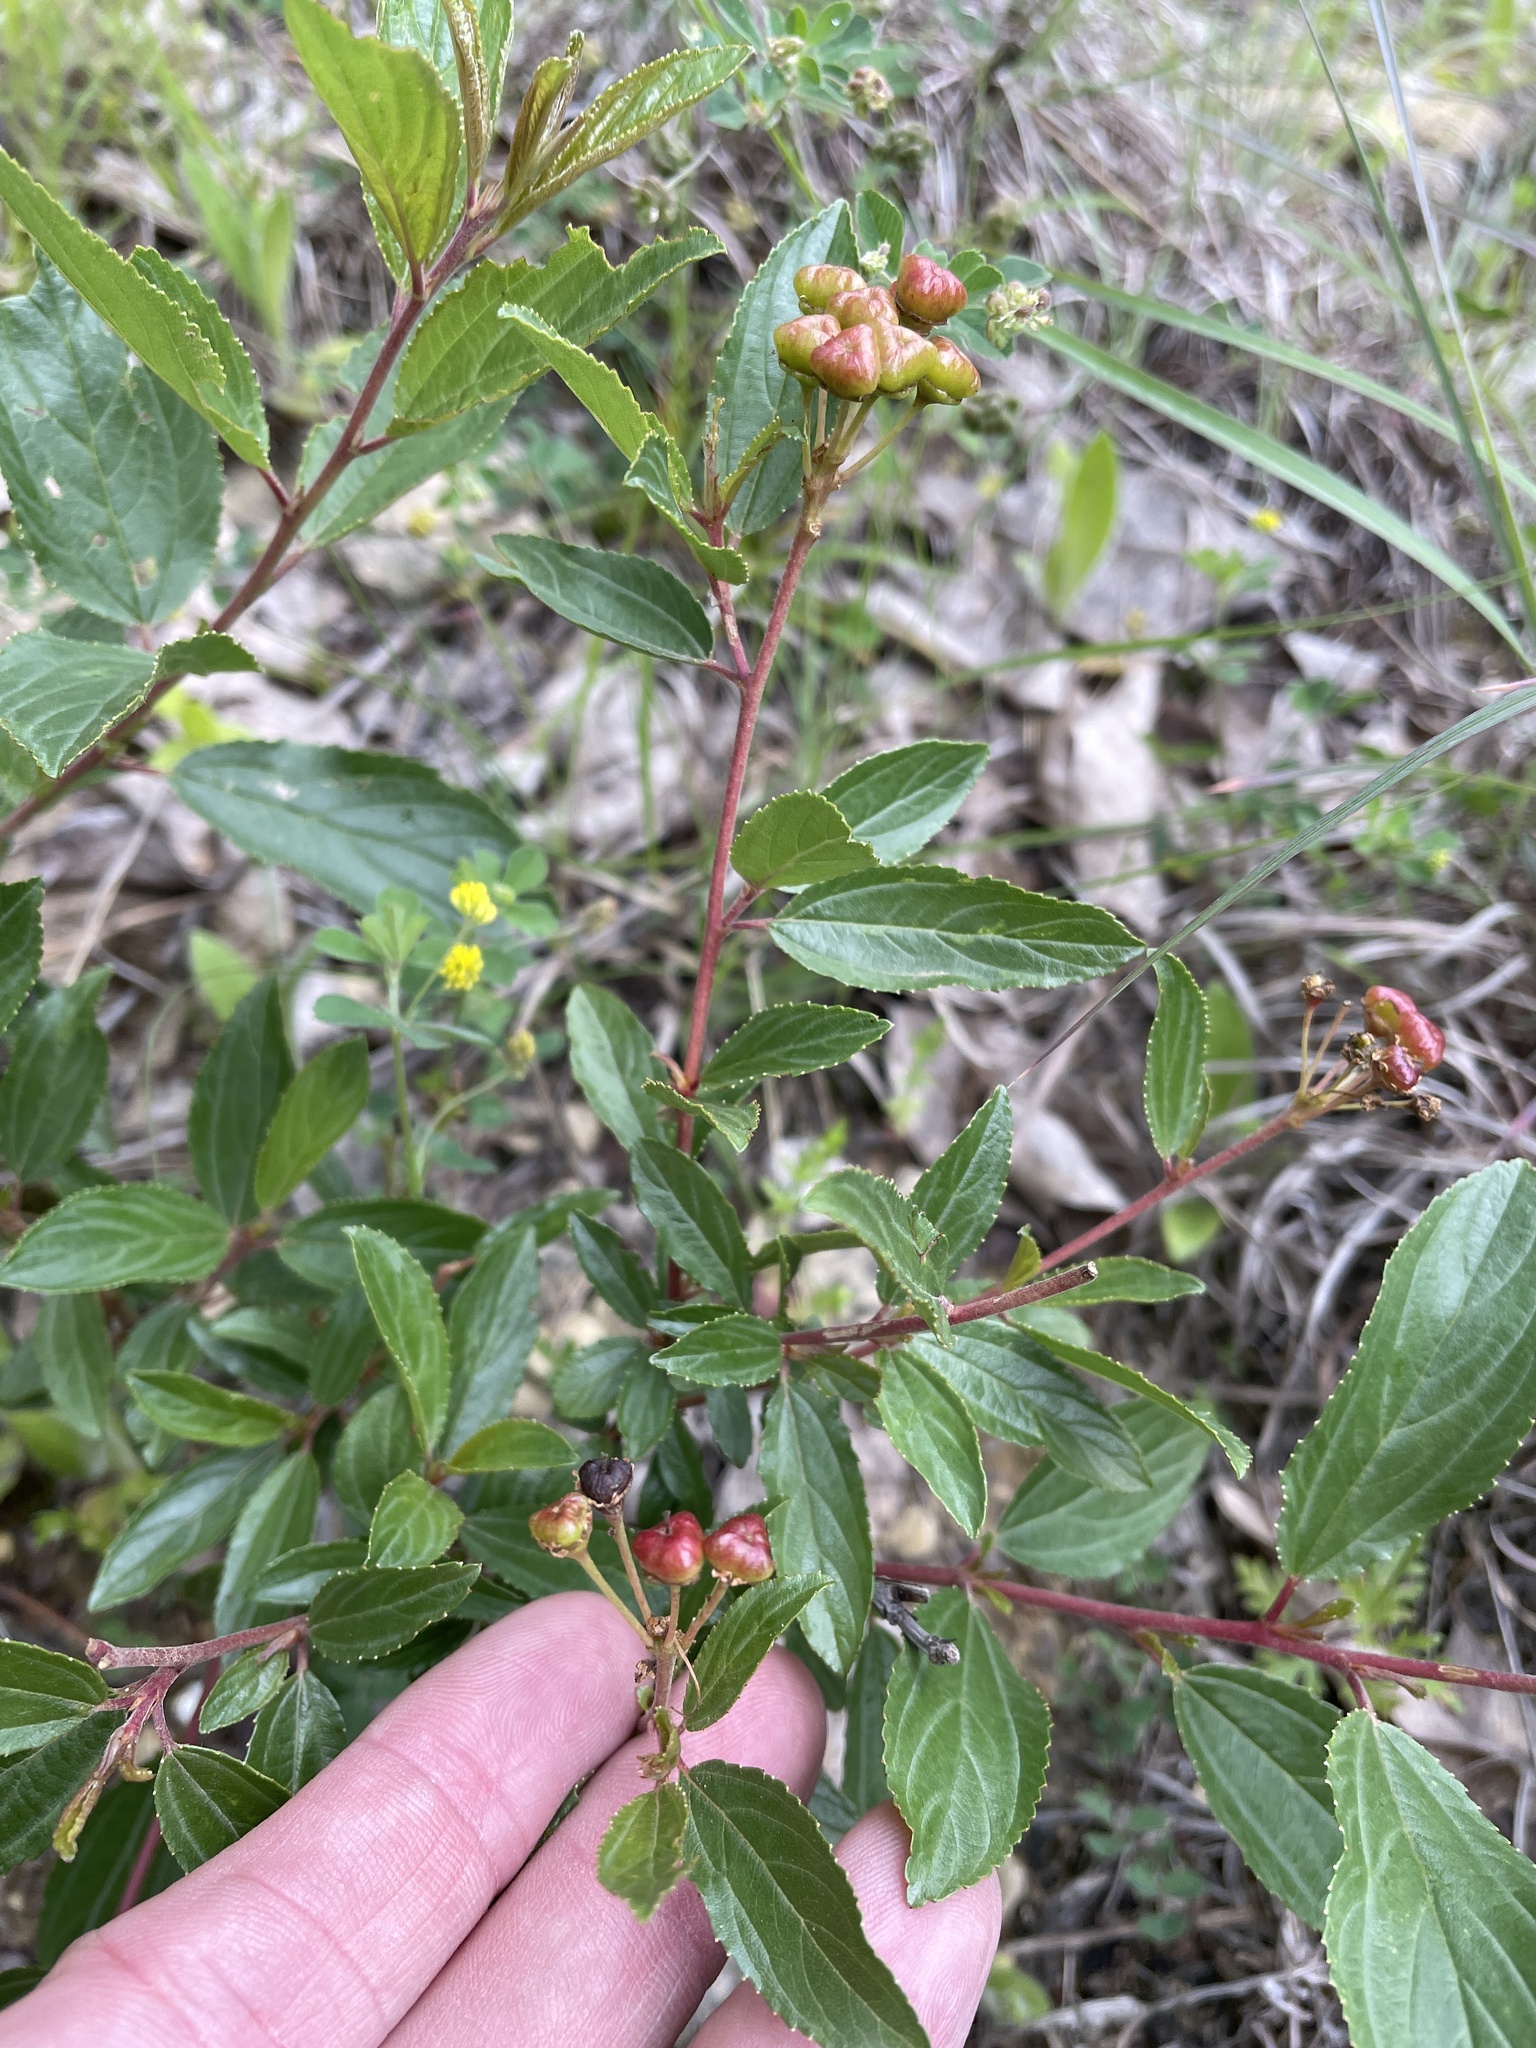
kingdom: Plantae
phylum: Tracheophyta
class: Magnoliopsida
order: Rosales
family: Rhamnaceae
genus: Ceanothus
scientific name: Ceanothus herbaceus
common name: Inland ceanothus
